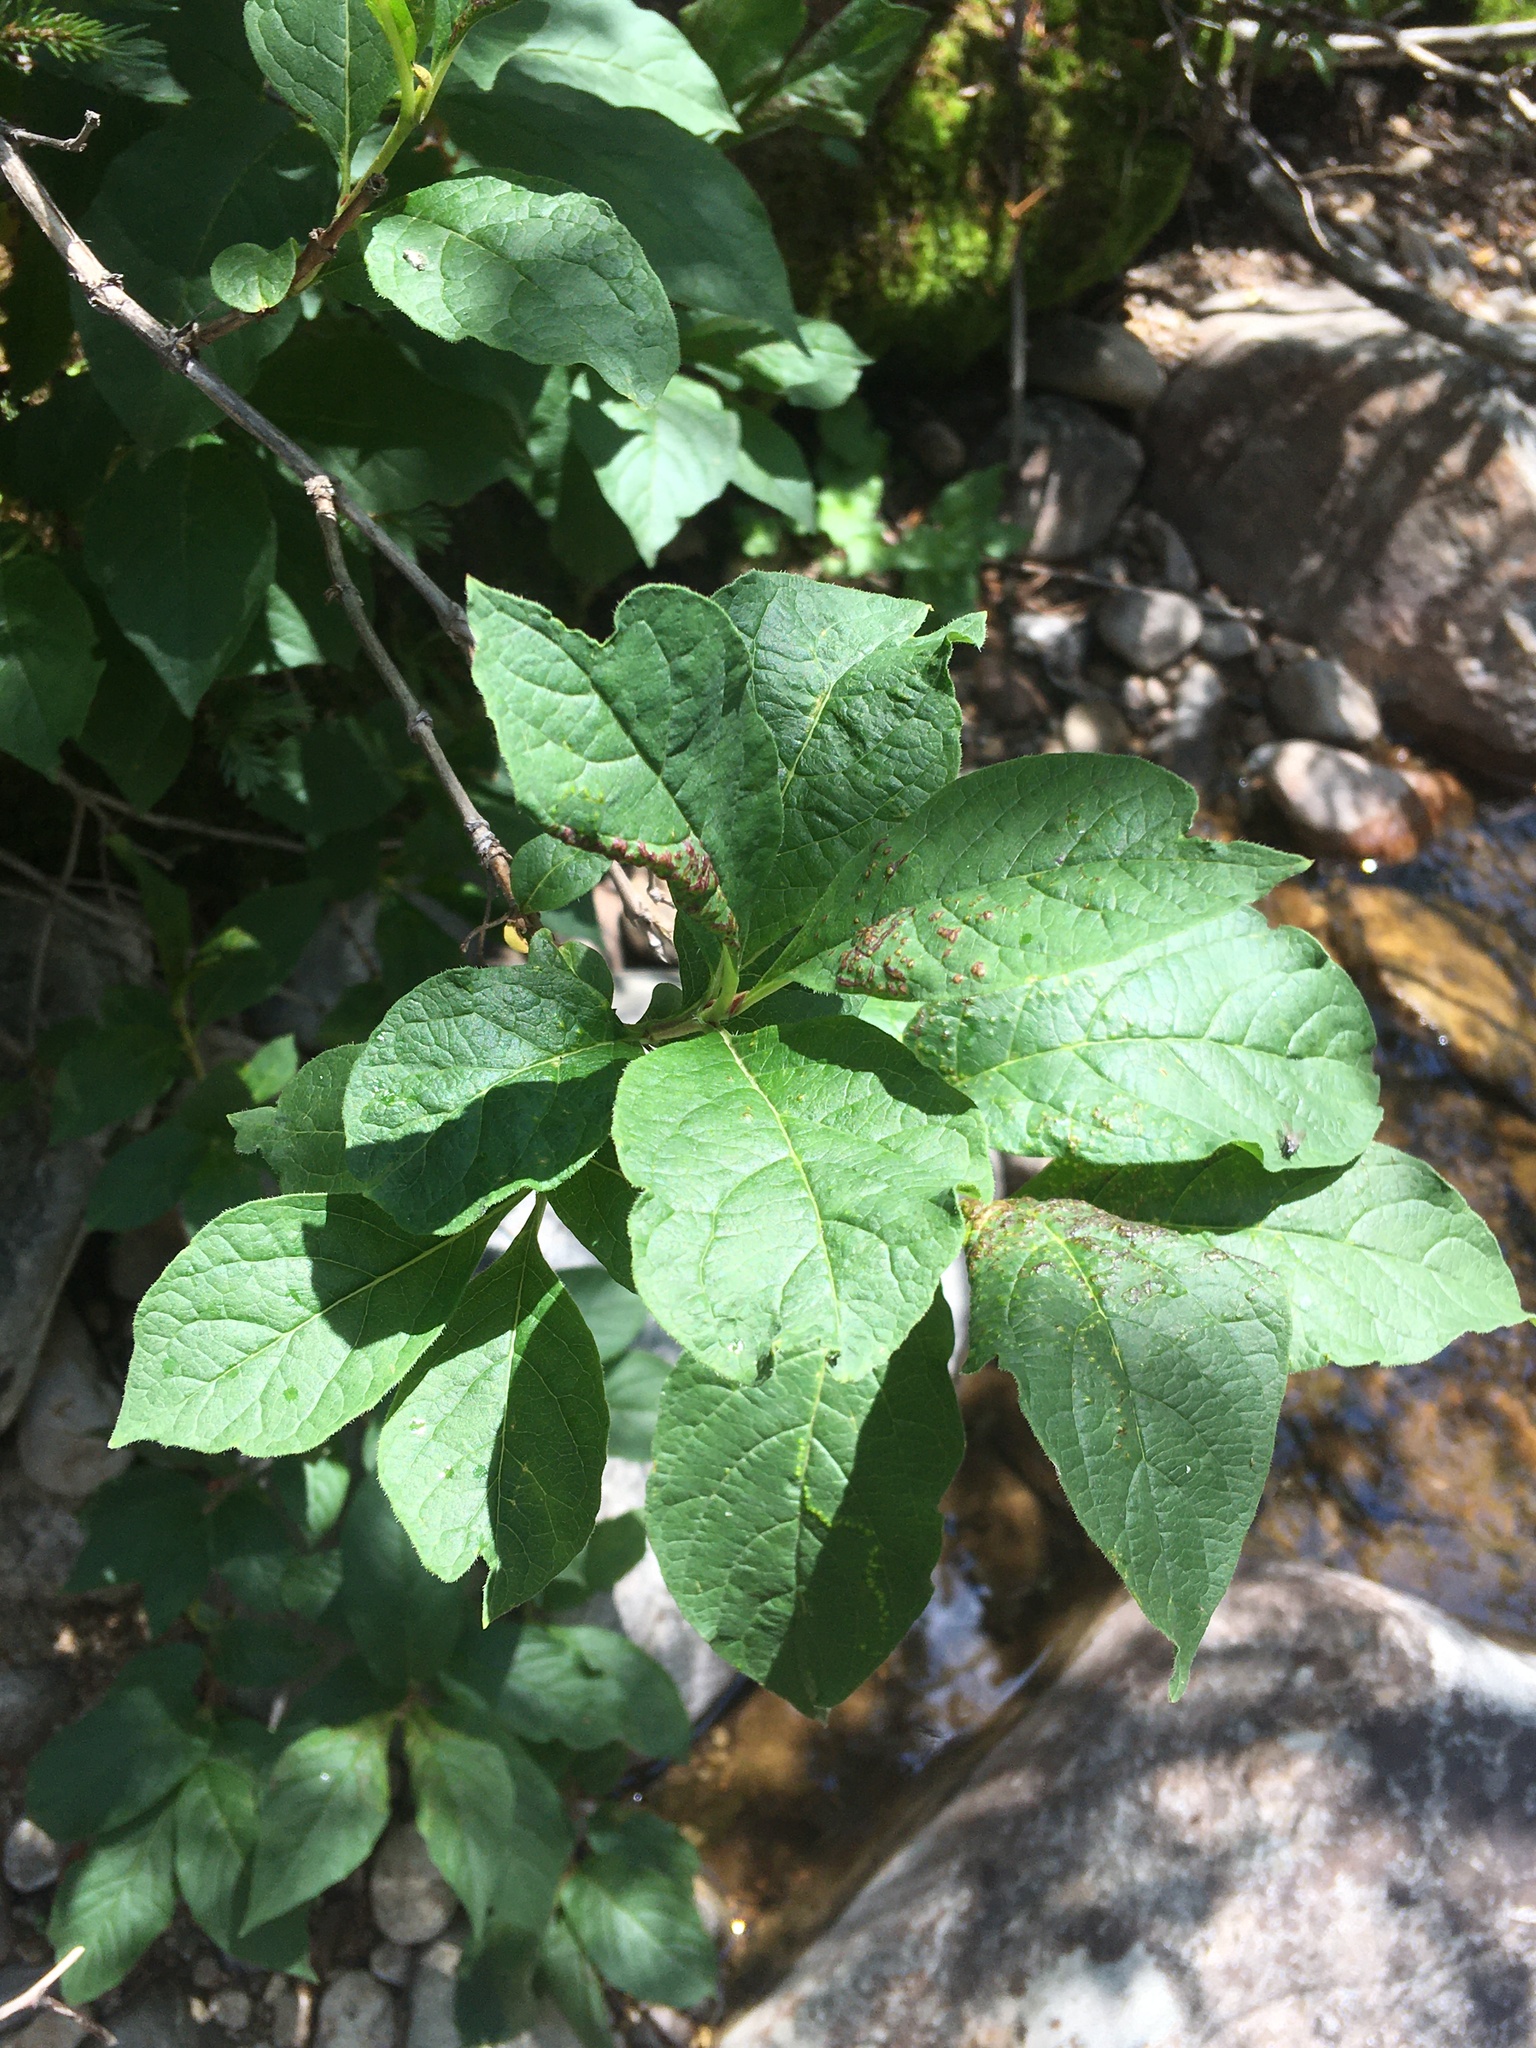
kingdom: Plantae
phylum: Tracheophyta
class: Magnoliopsida
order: Dipsacales
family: Caprifoliaceae
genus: Lonicera
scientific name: Lonicera involucrata
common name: Californian honeysuckle
